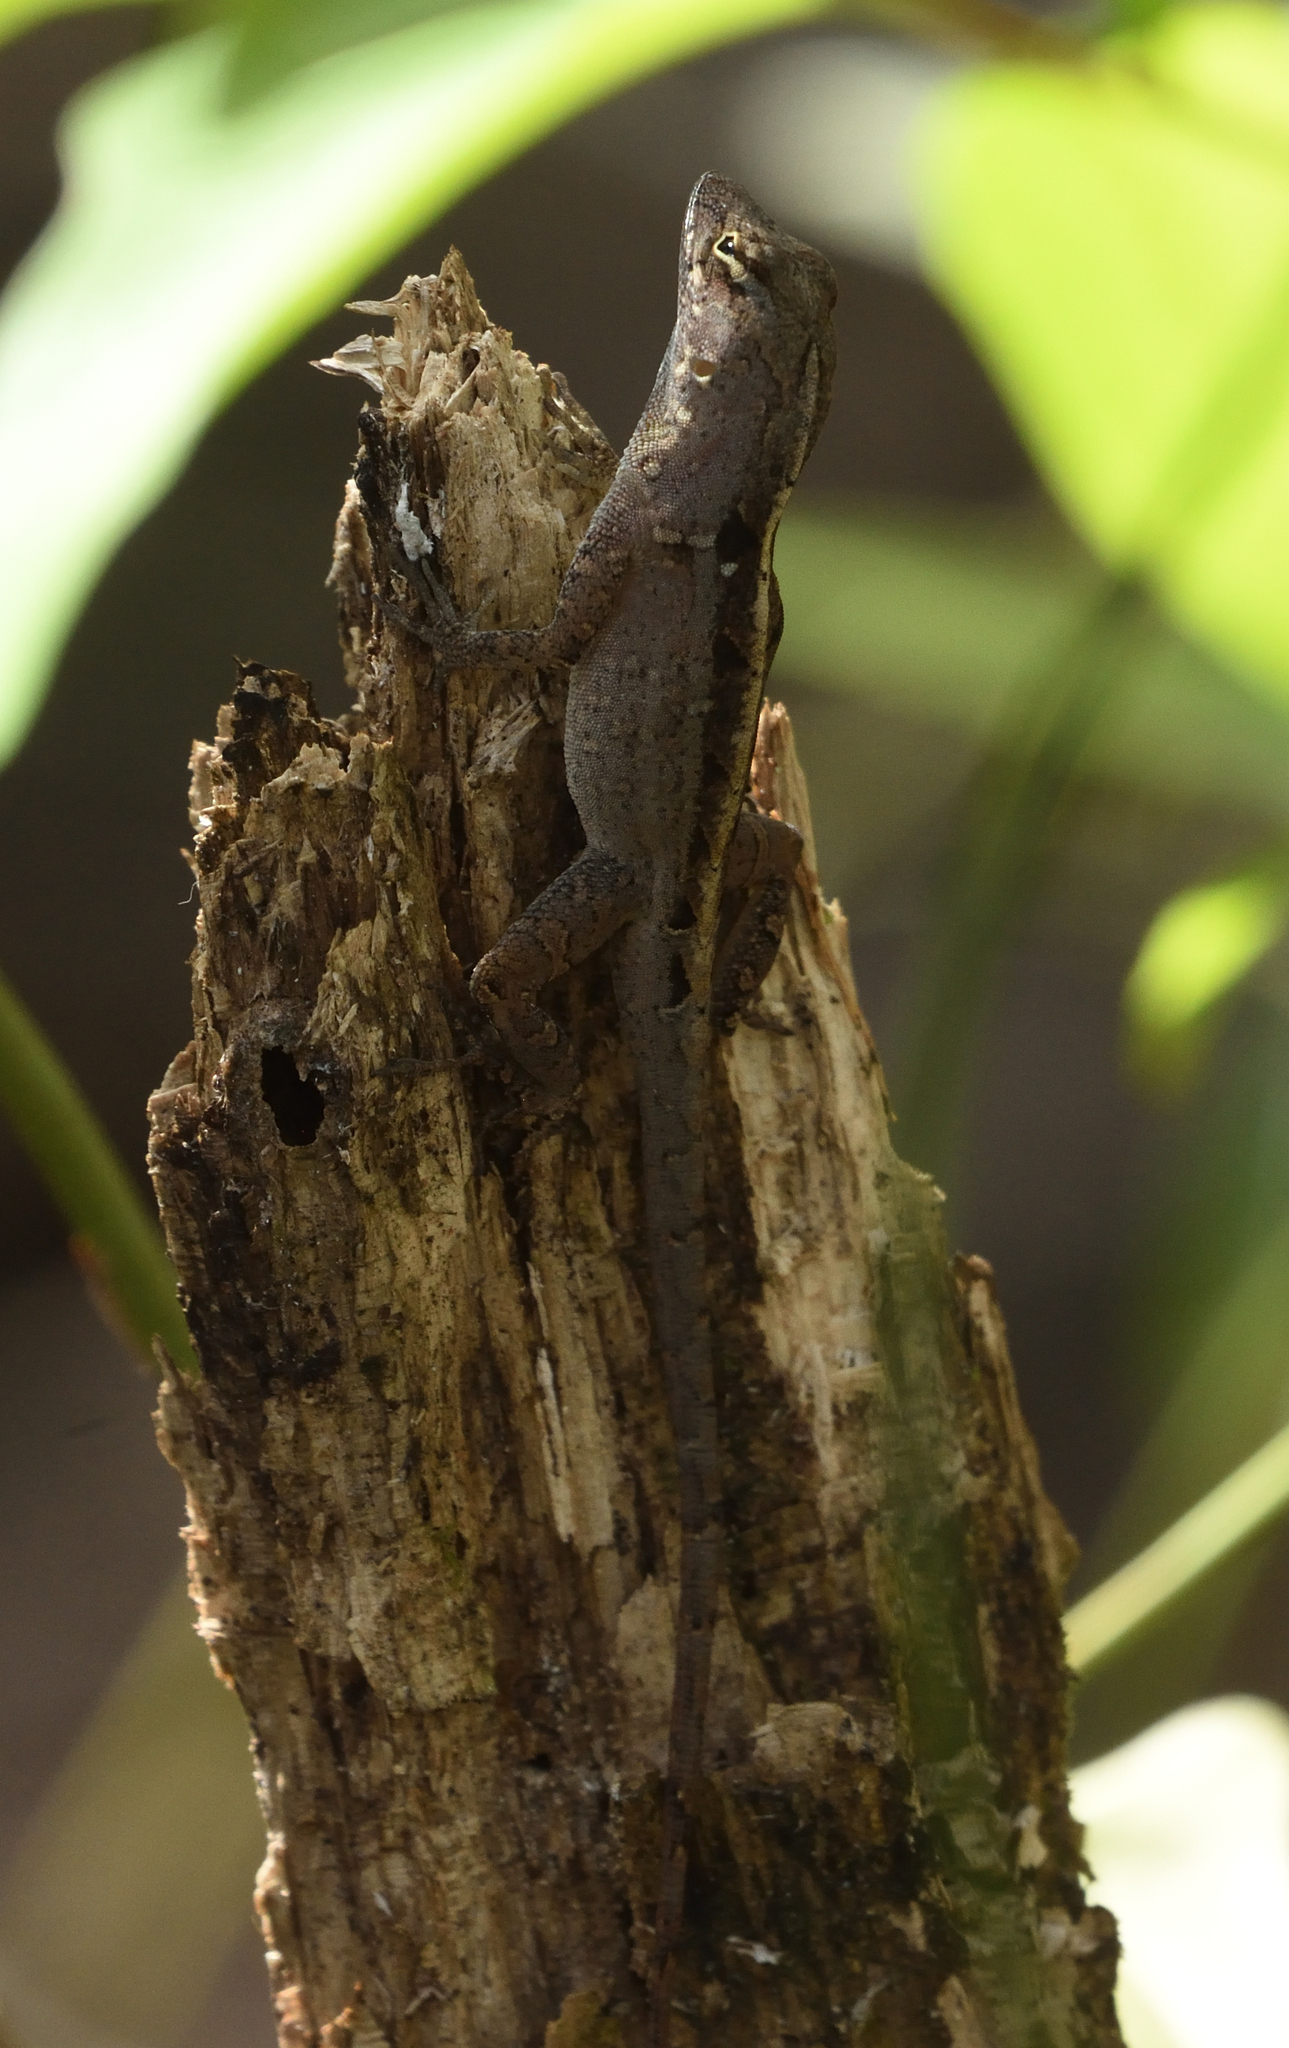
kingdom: Animalia
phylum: Chordata
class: Squamata
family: Dactyloidae
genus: Anolis
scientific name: Anolis sagrei
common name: Brown anole
